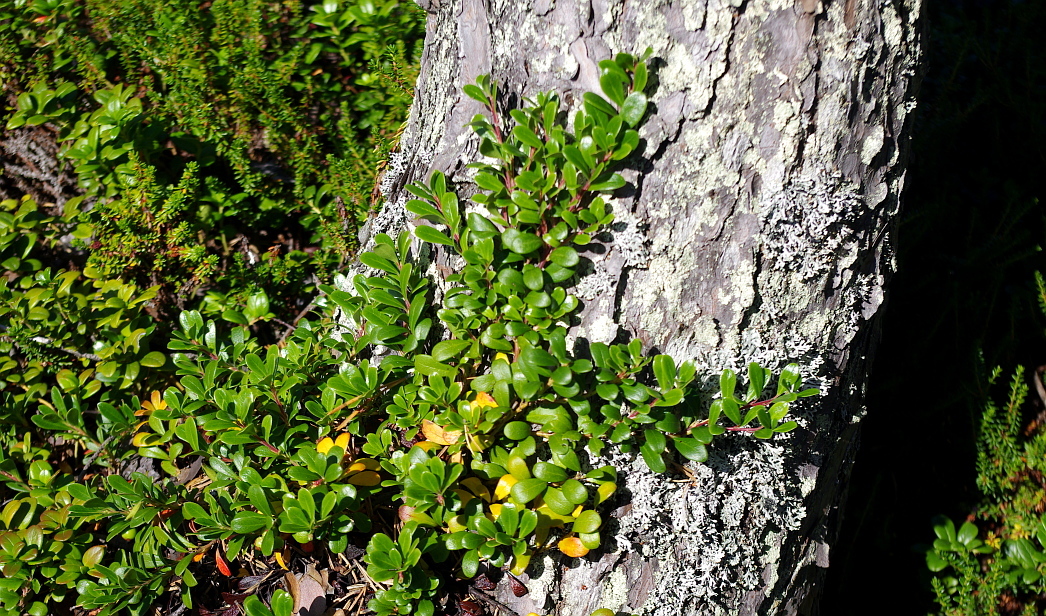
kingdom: Plantae
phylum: Tracheophyta
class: Magnoliopsida
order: Ericales
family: Ericaceae
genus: Arctostaphylos
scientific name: Arctostaphylos uva-ursi
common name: Bearberry
